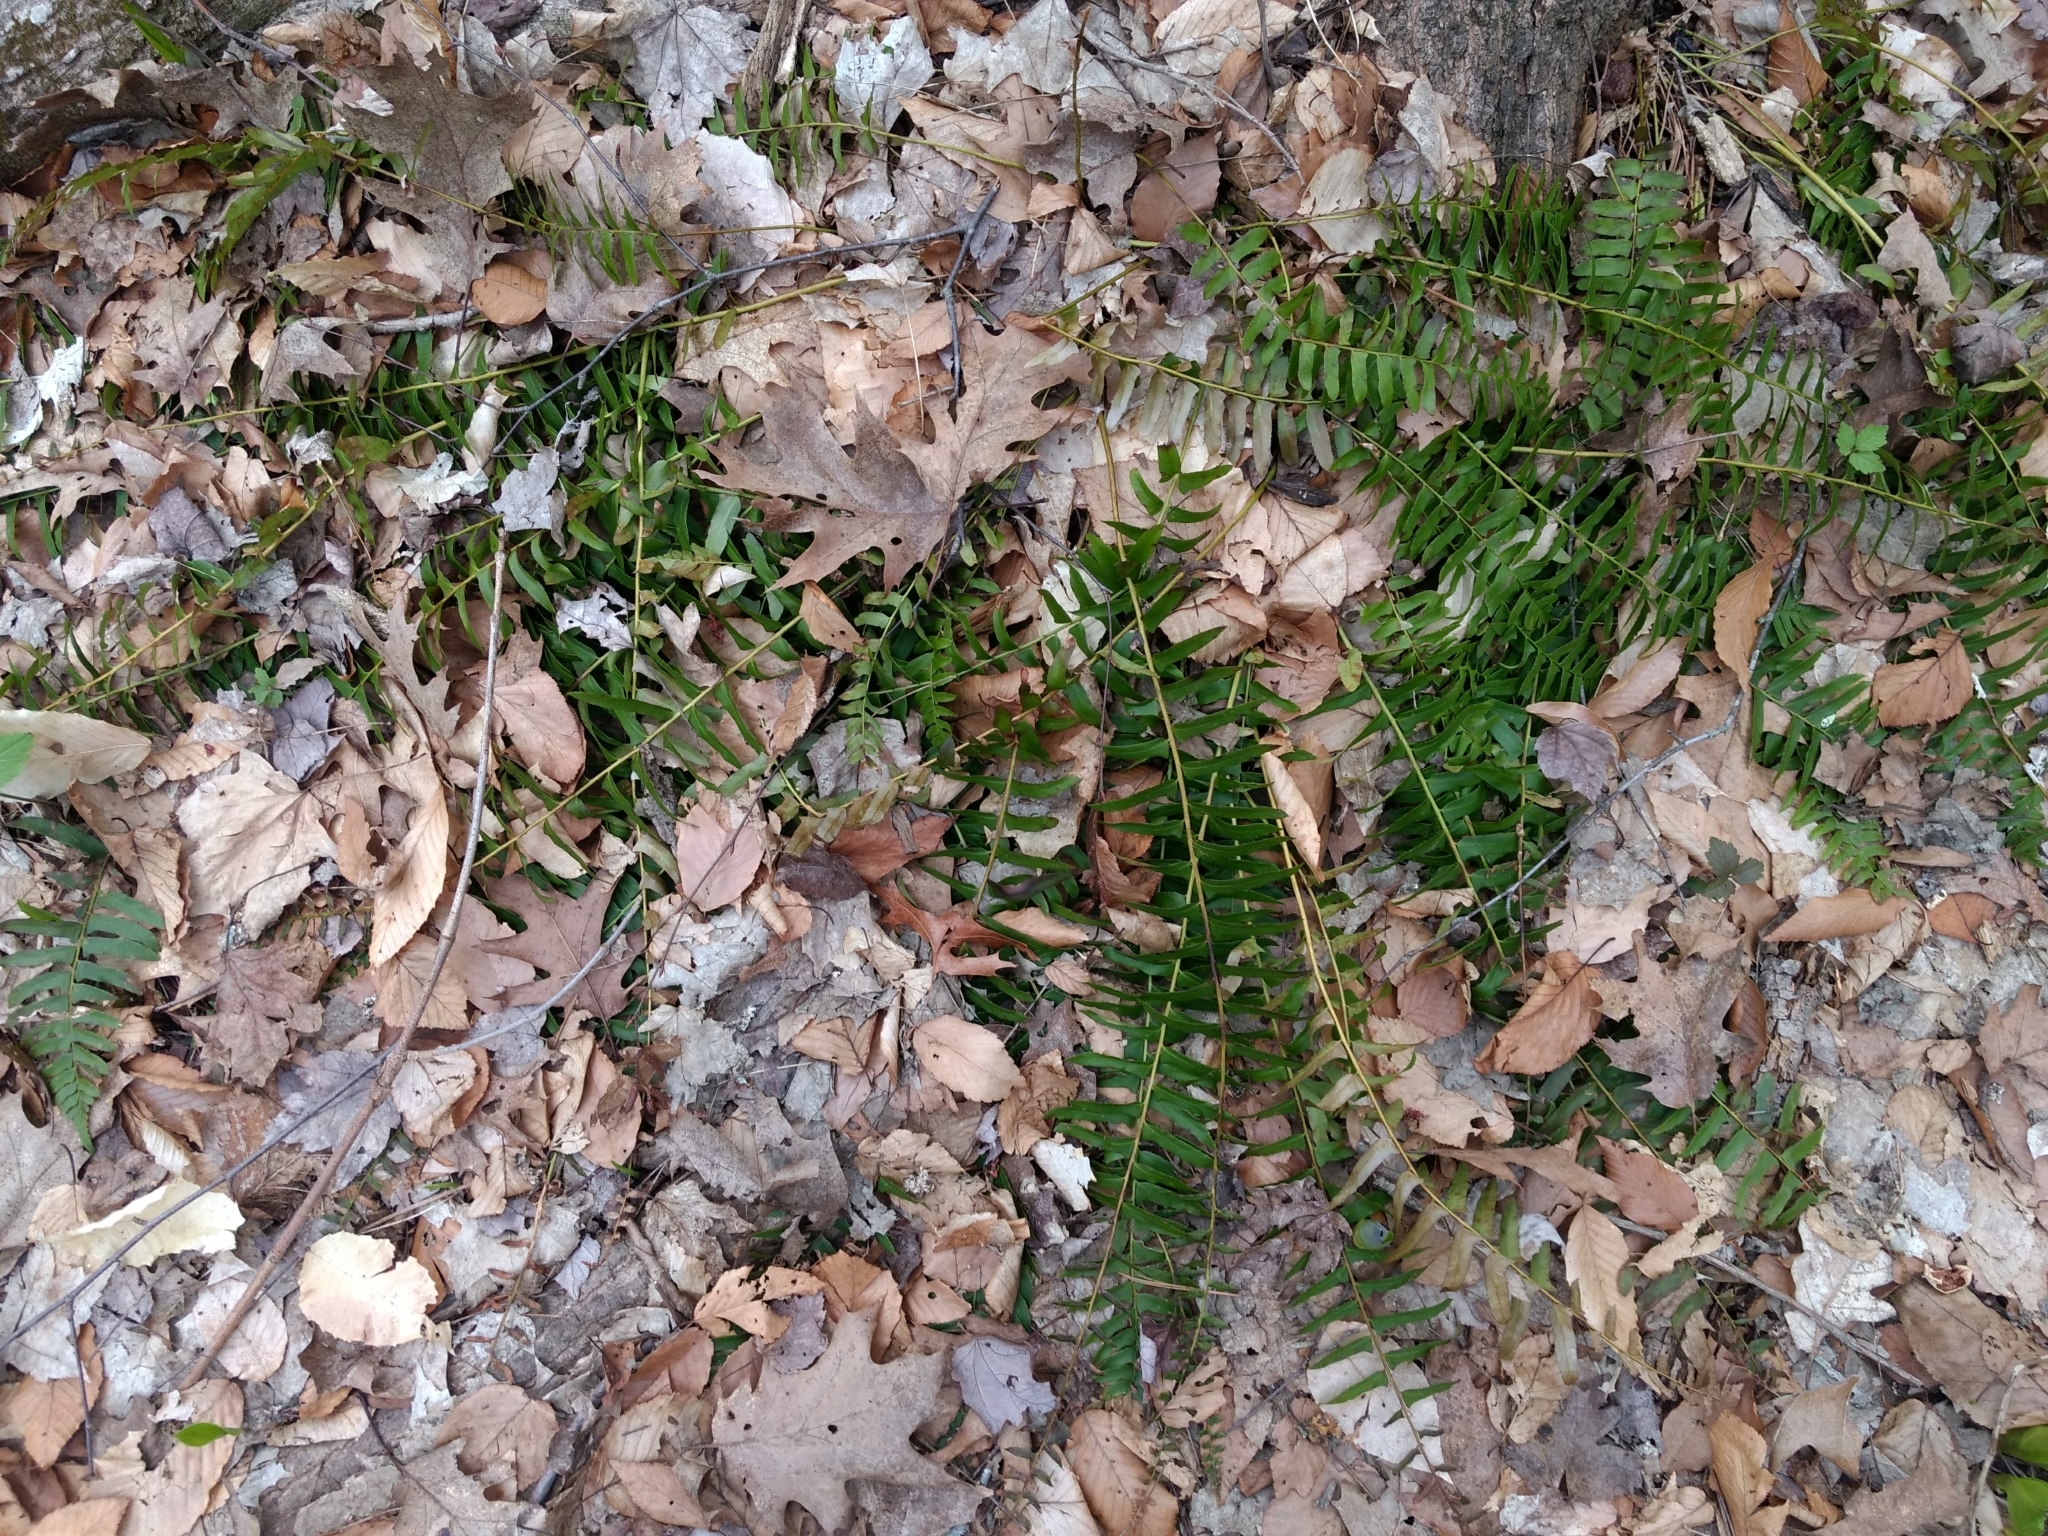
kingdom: Plantae
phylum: Tracheophyta
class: Polypodiopsida
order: Polypodiales
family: Dryopteridaceae
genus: Polystichum
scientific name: Polystichum acrostichoides
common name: Christmas fern
